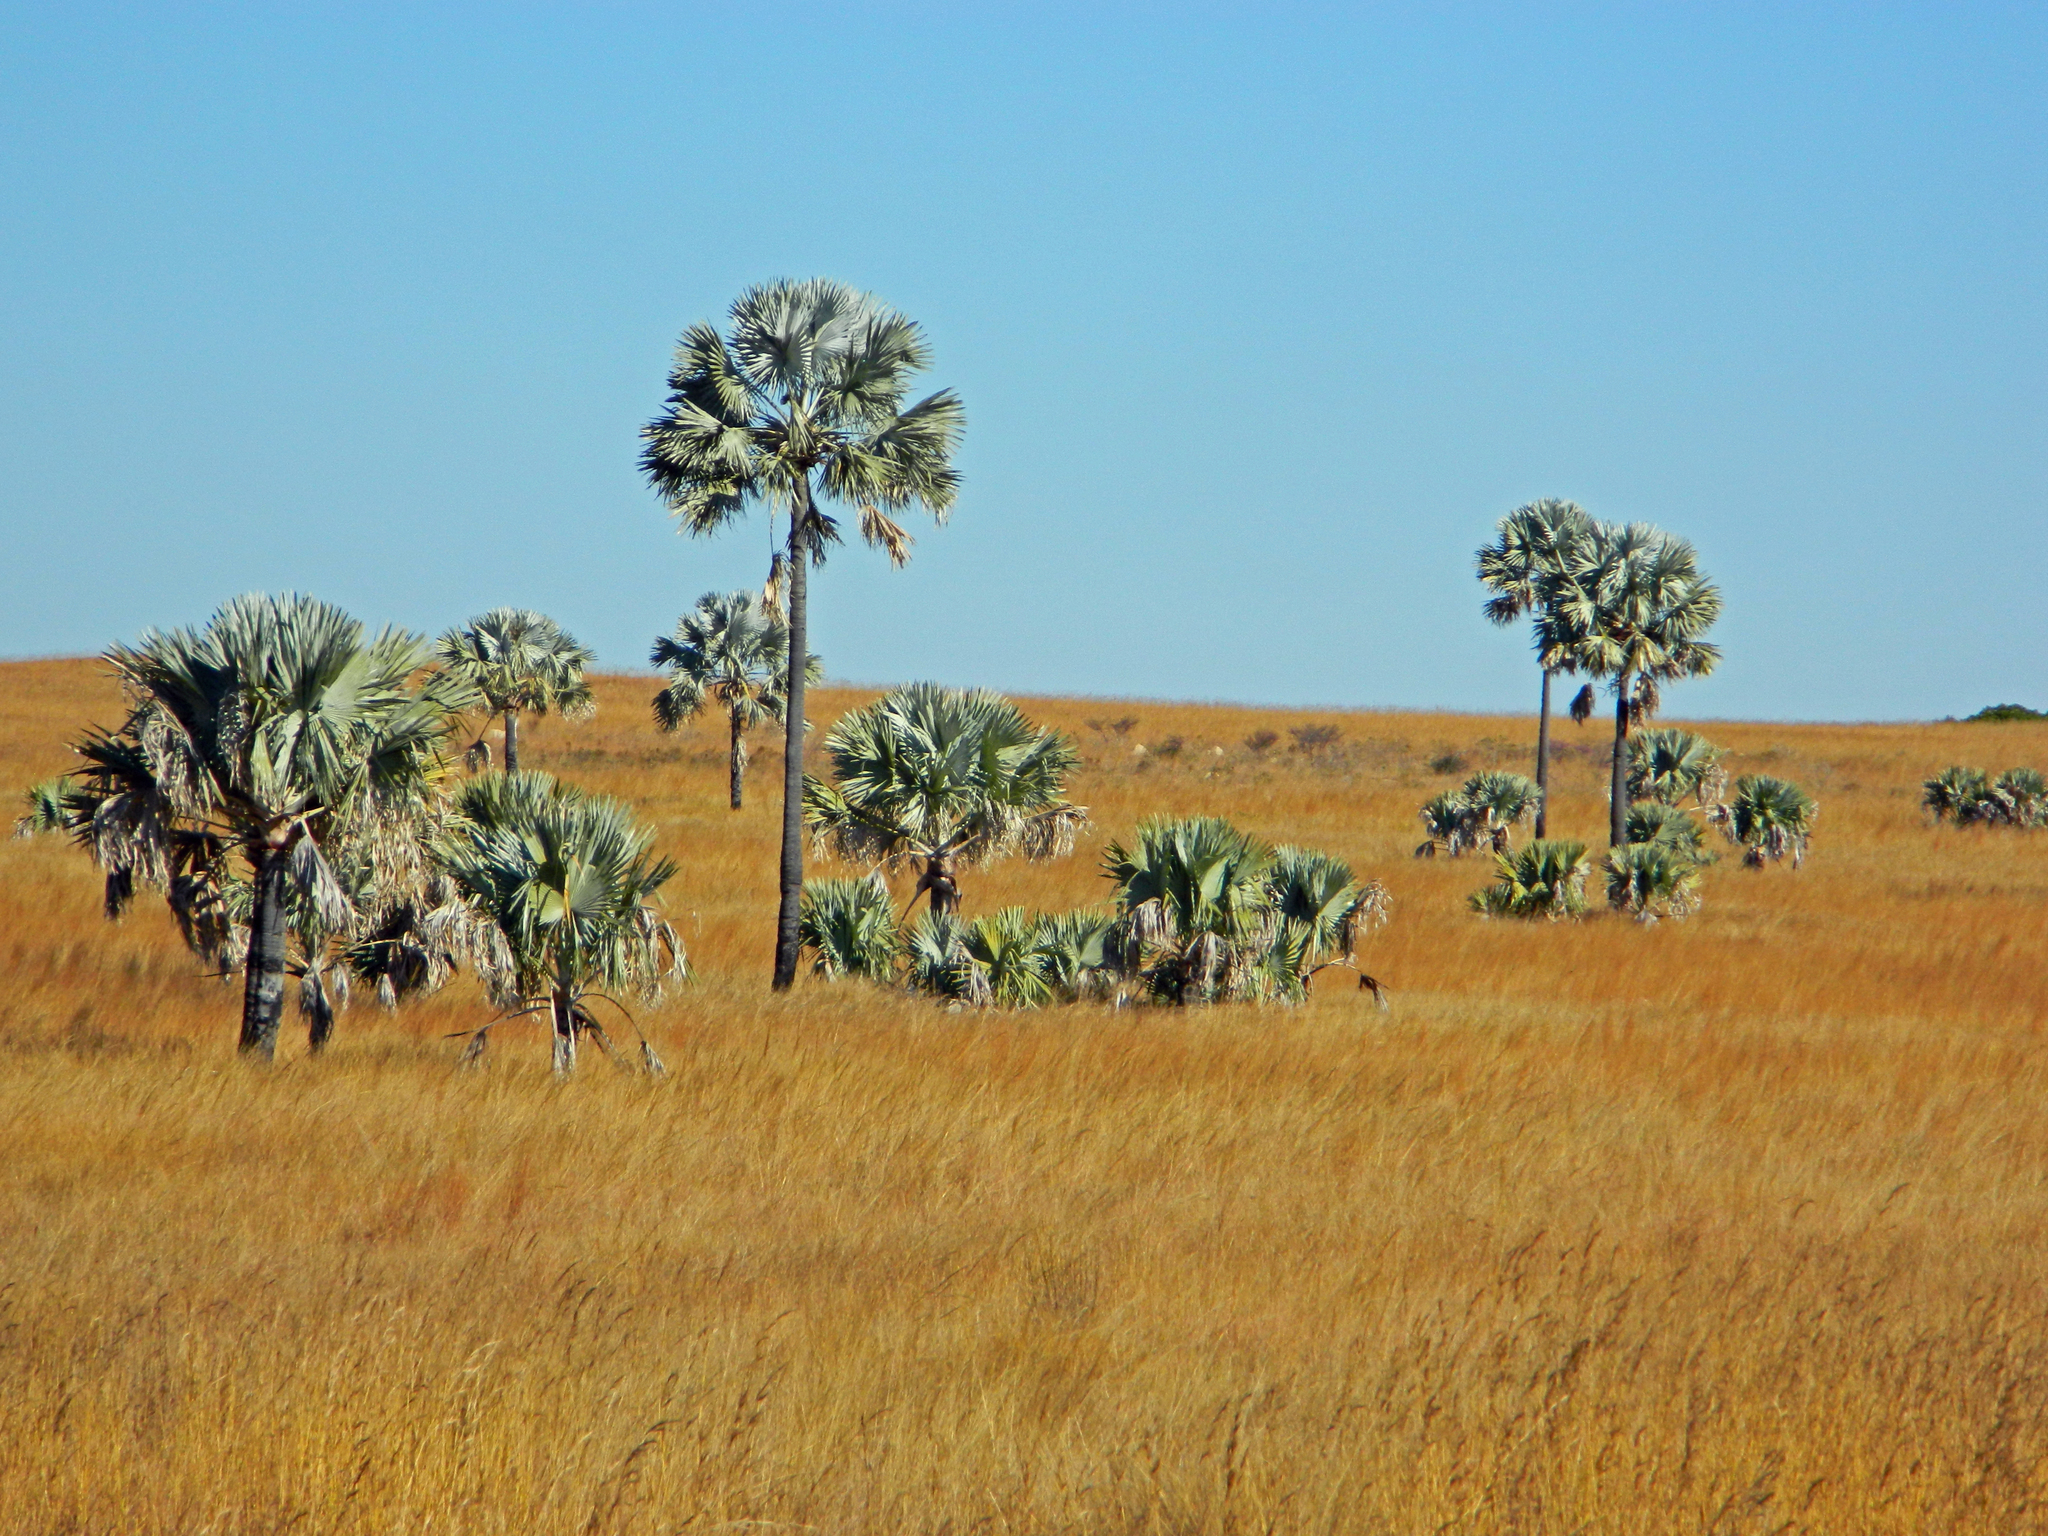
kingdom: Plantae
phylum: Tracheophyta
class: Liliopsida
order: Arecales
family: Arecaceae
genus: Bismarckia
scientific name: Bismarckia nobilis
